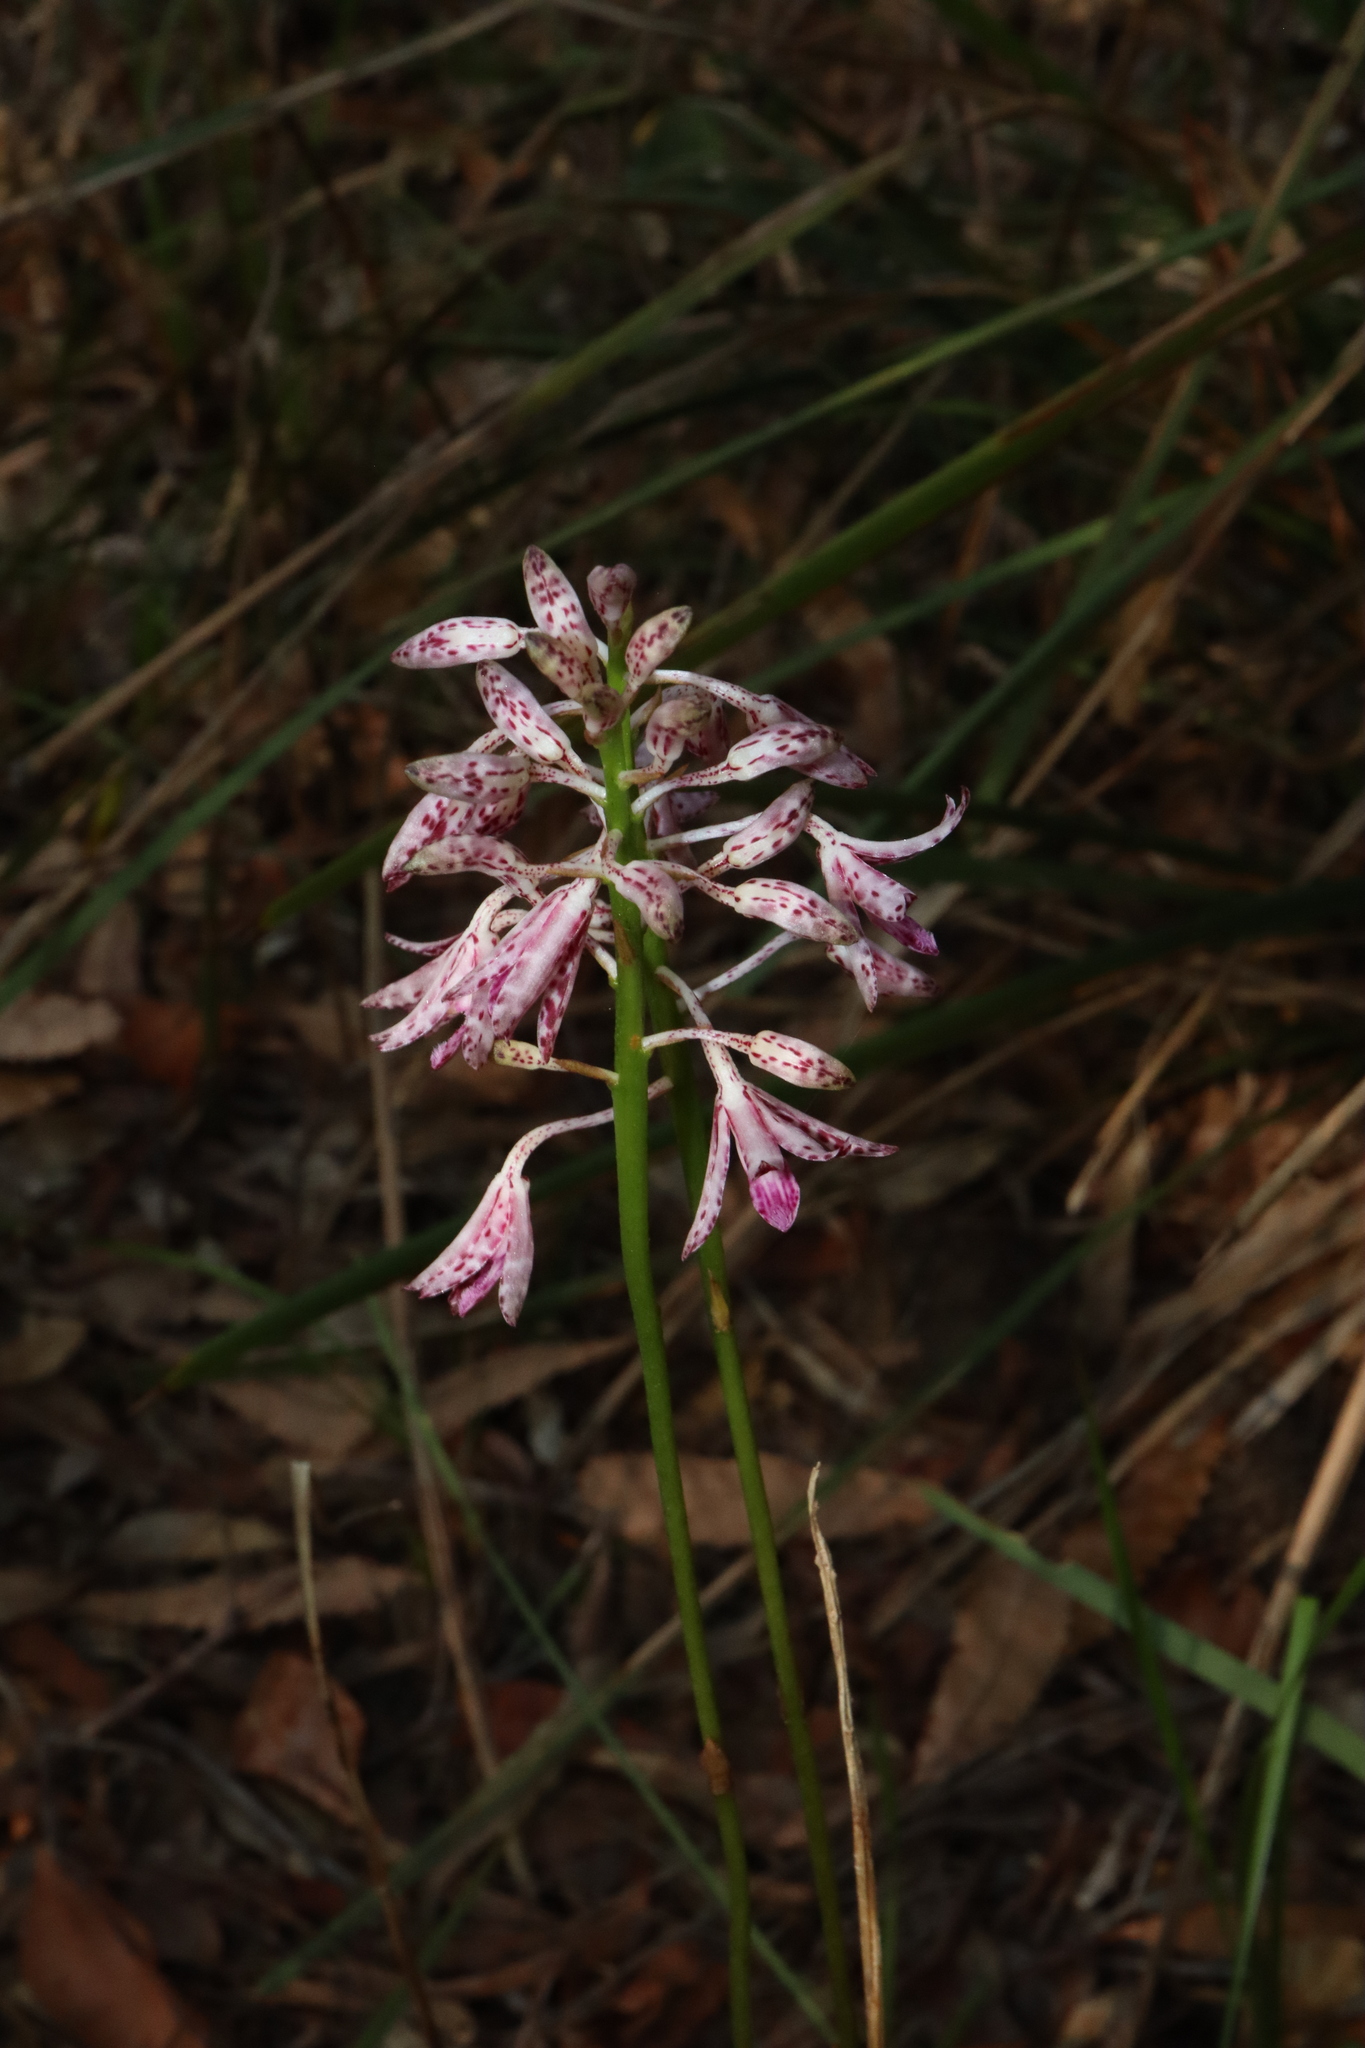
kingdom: Plantae
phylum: Tracheophyta
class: Liliopsida
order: Asparagales
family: Orchidaceae
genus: Dipodium
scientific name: Dipodium variegatum
